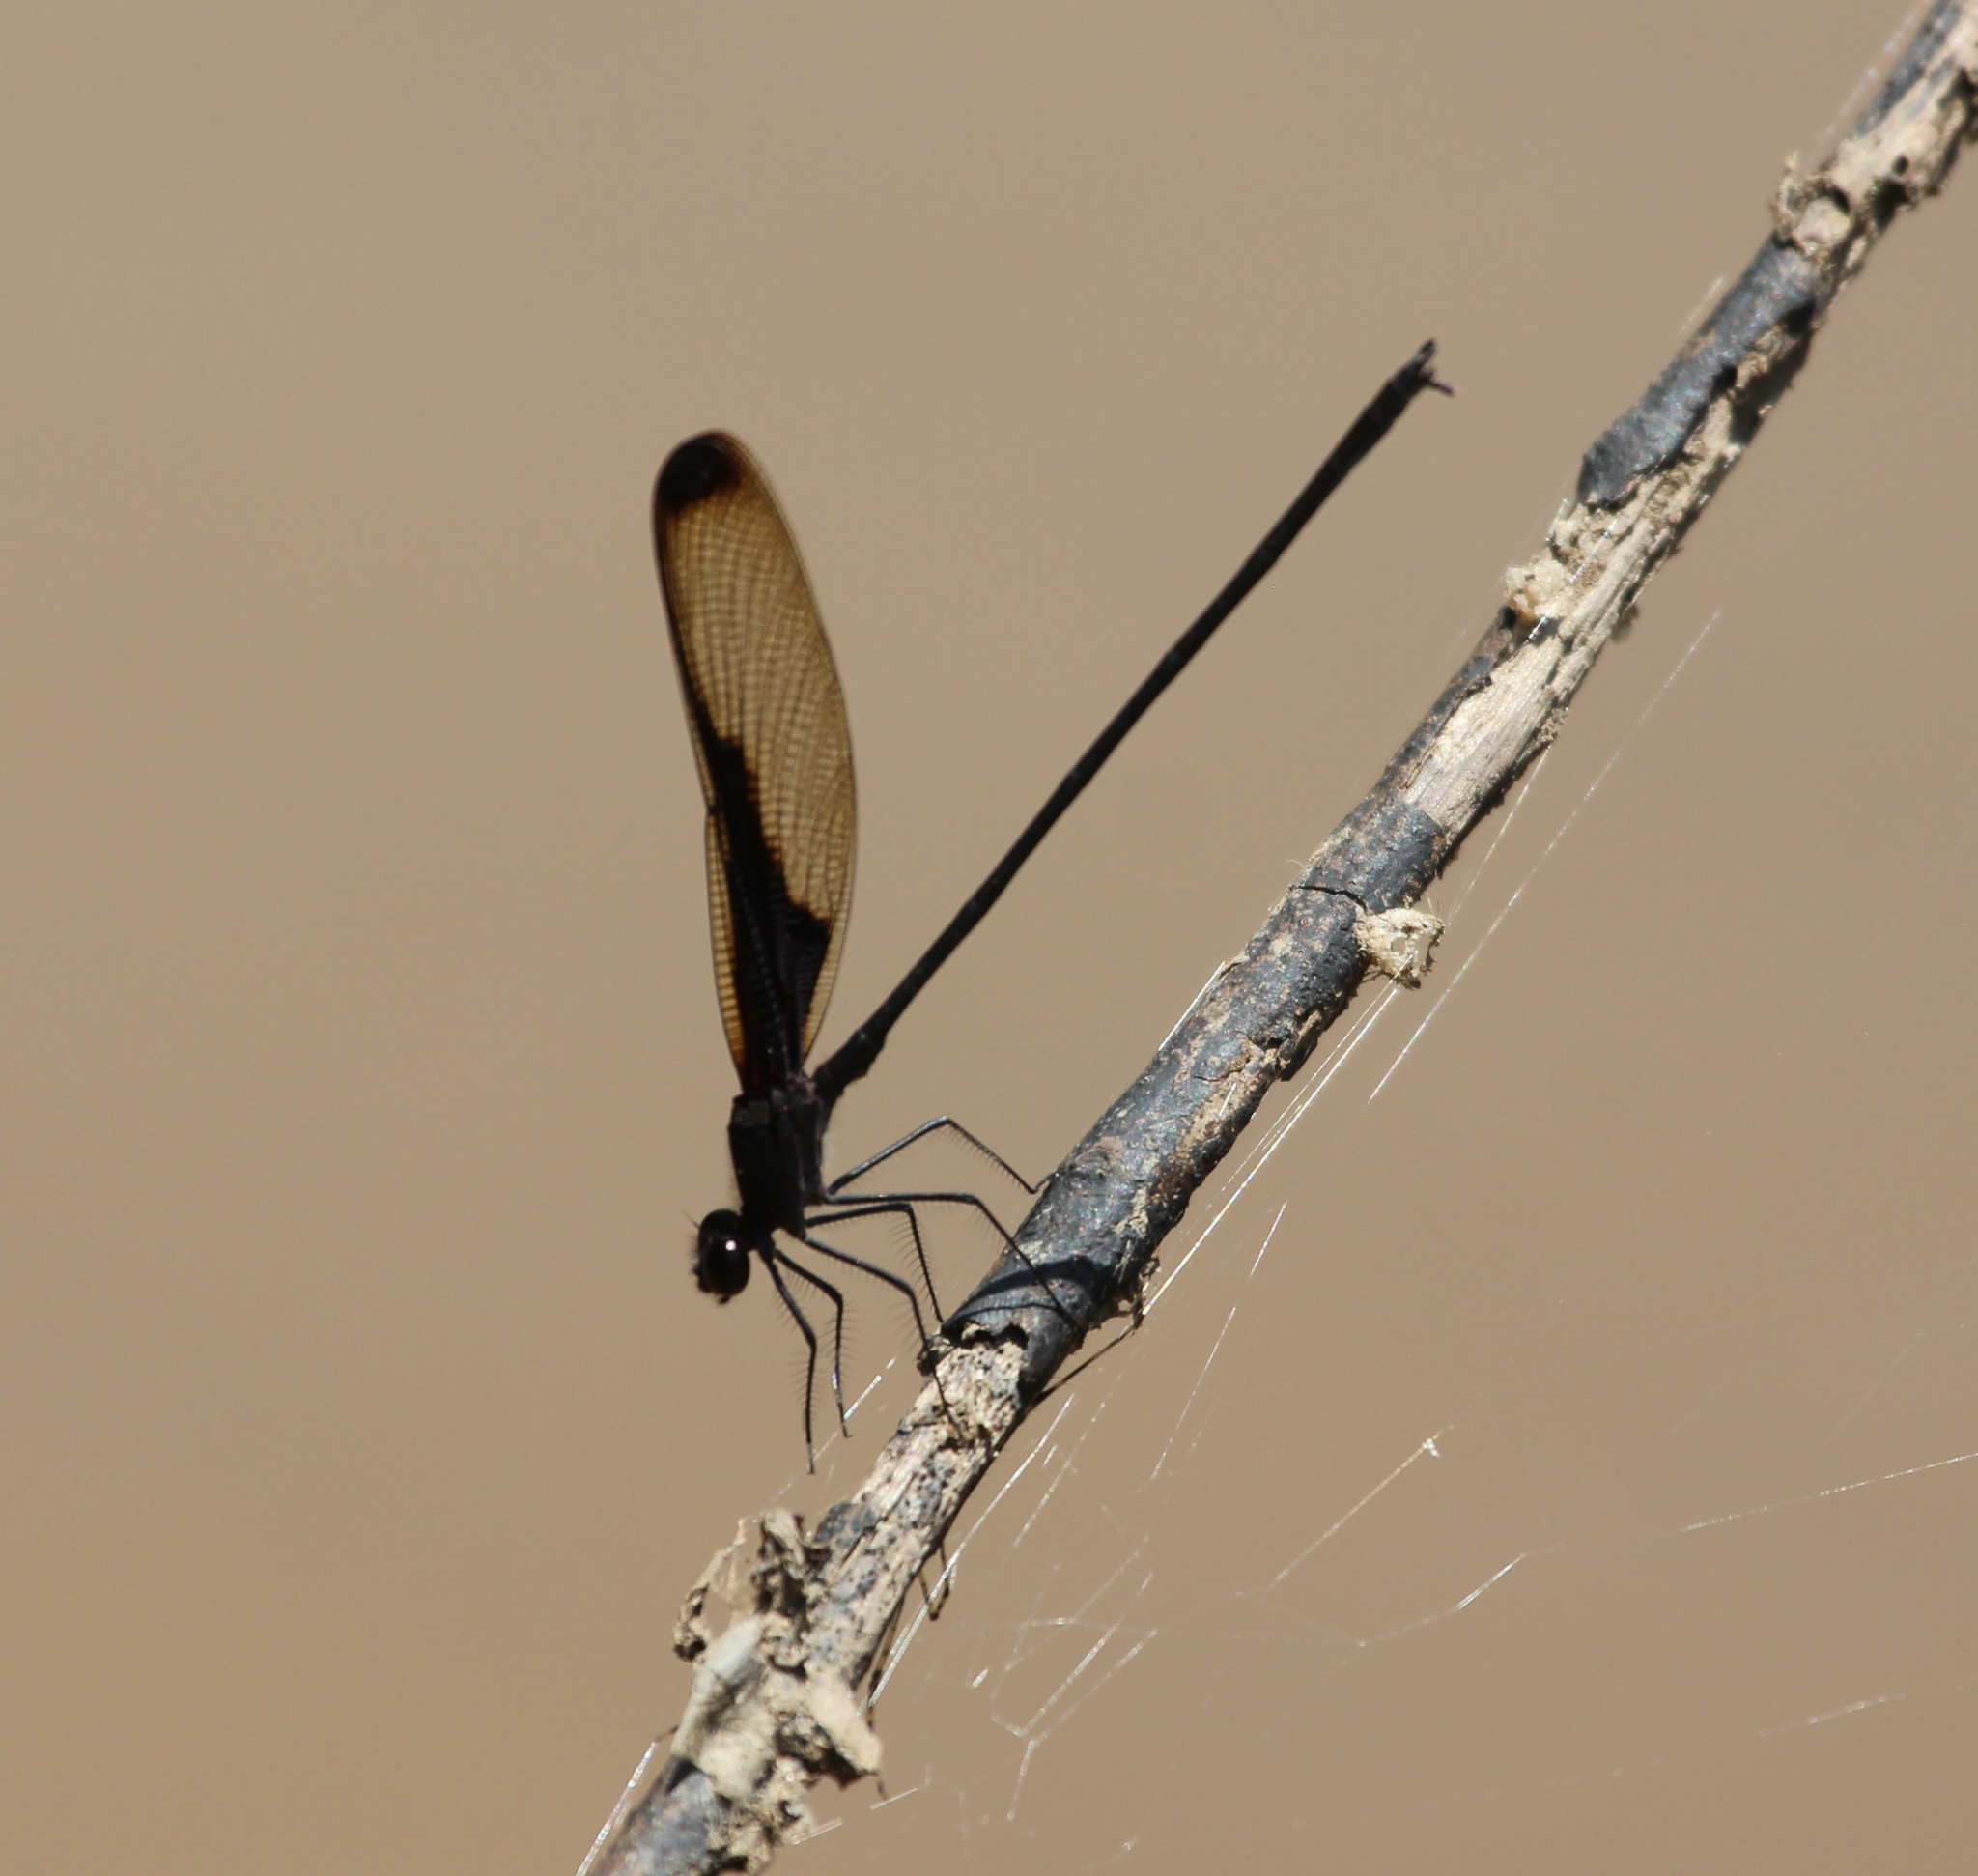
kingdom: Animalia
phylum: Arthropoda
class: Insecta
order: Odonata
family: Calopterygidae
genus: Hetaerina
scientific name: Hetaerina titia
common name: Smoky rubyspot
